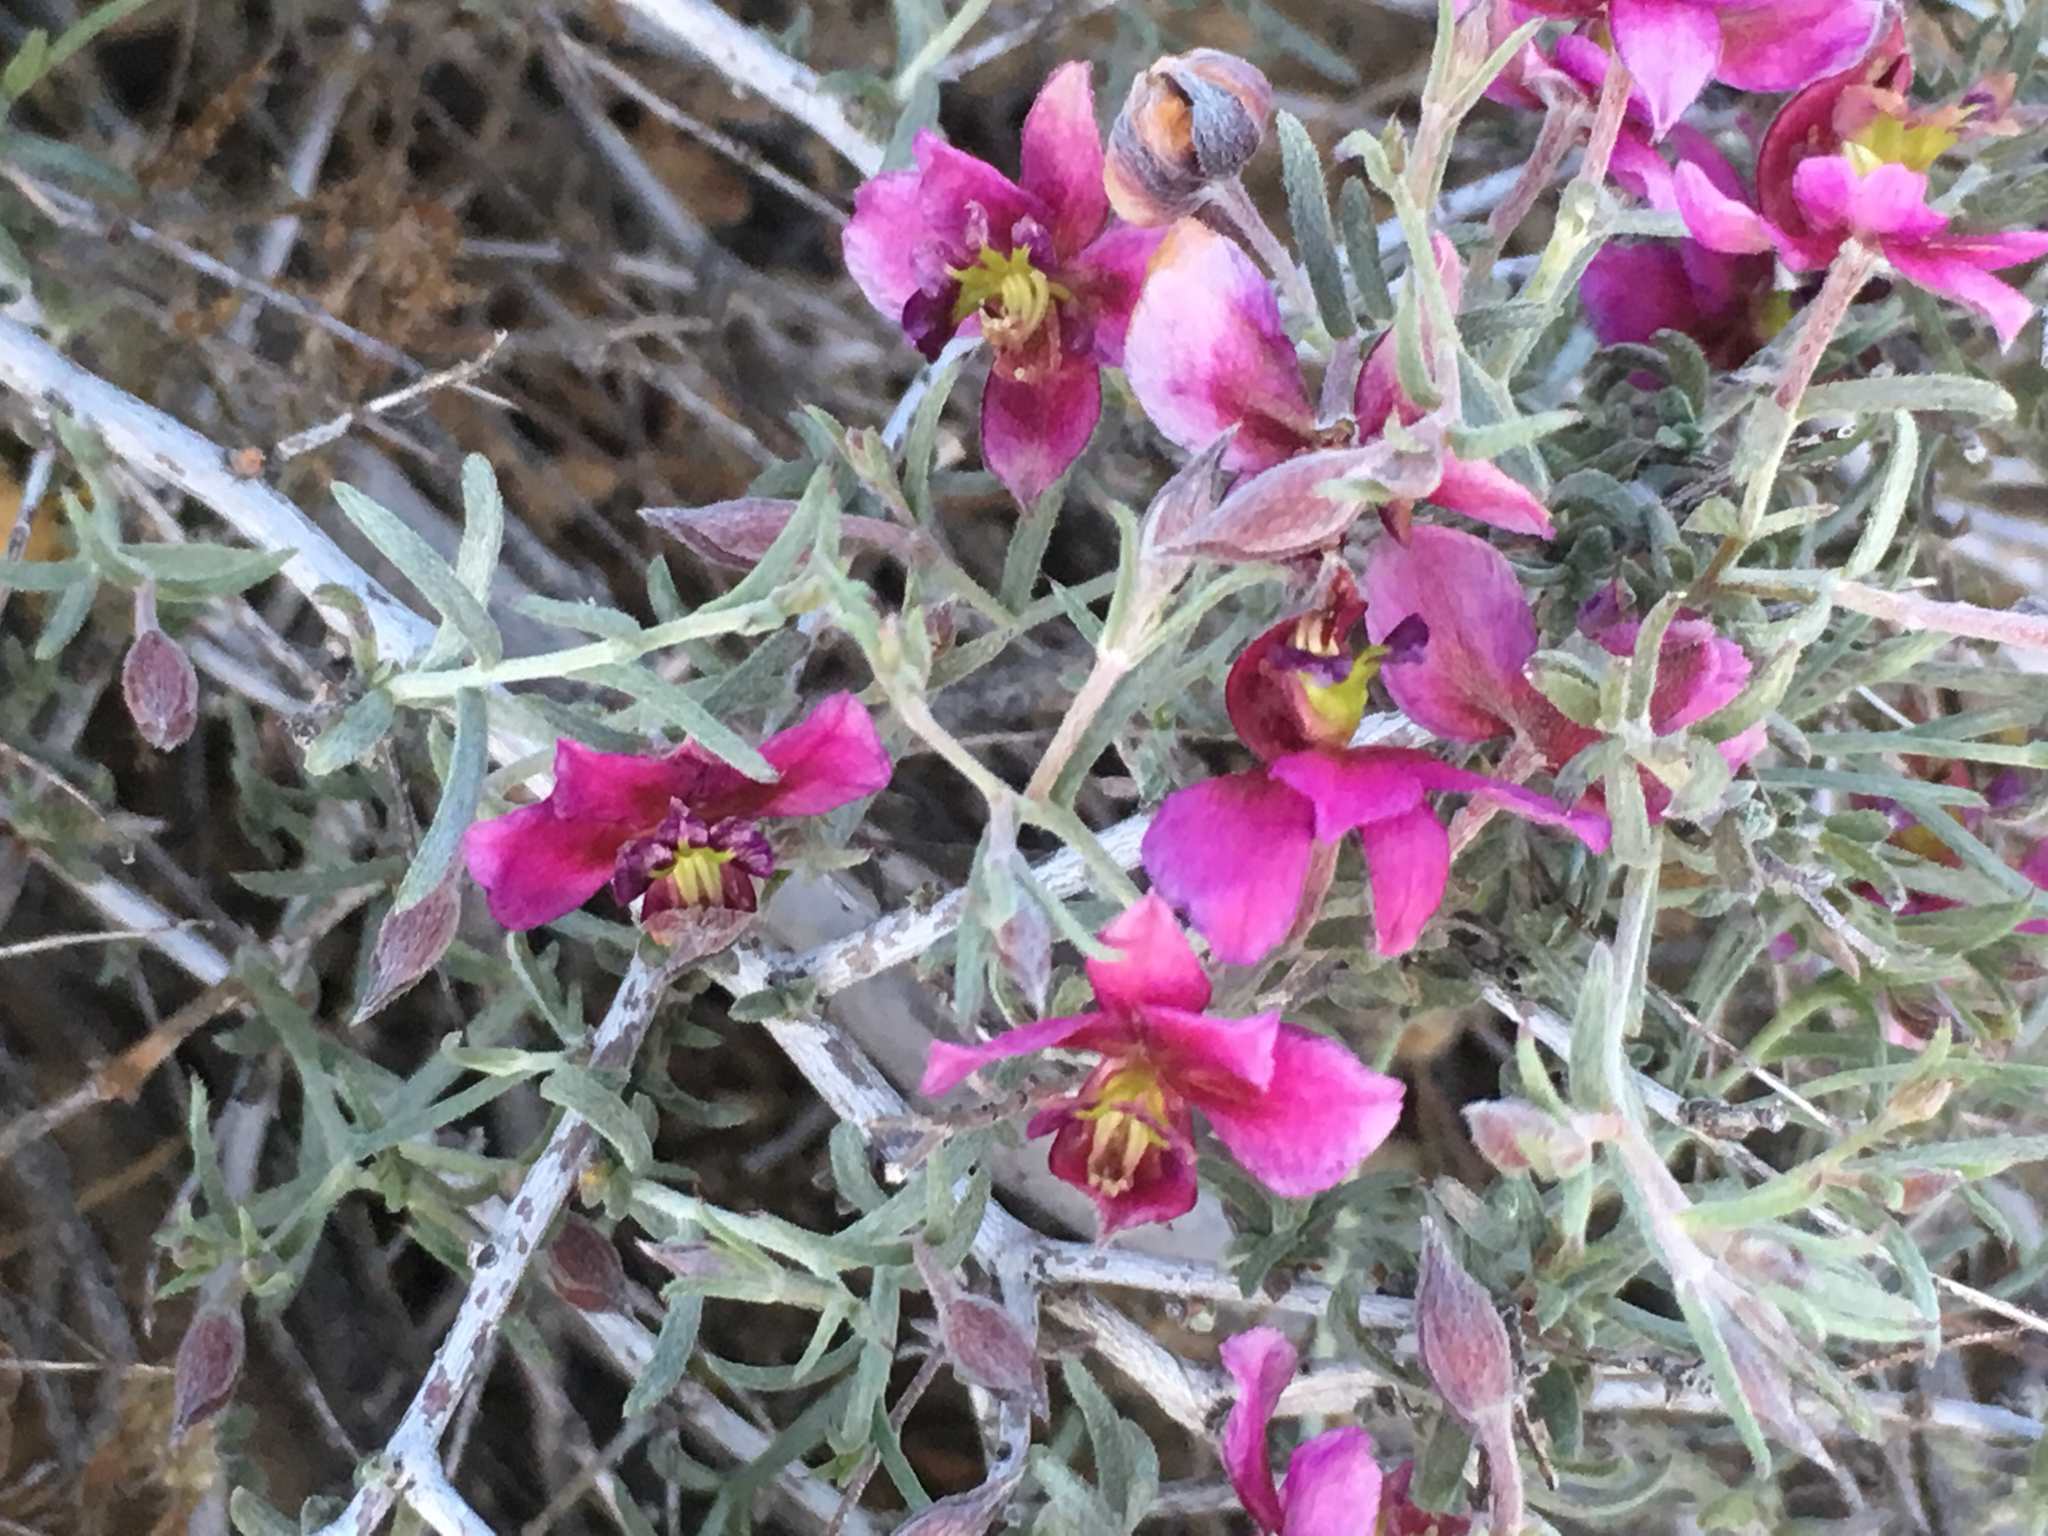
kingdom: Plantae
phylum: Tracheophyta
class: Magnoliopsida
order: Zygophyllales
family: Krameriaceae
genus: Krameria
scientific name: Krameria erecta
